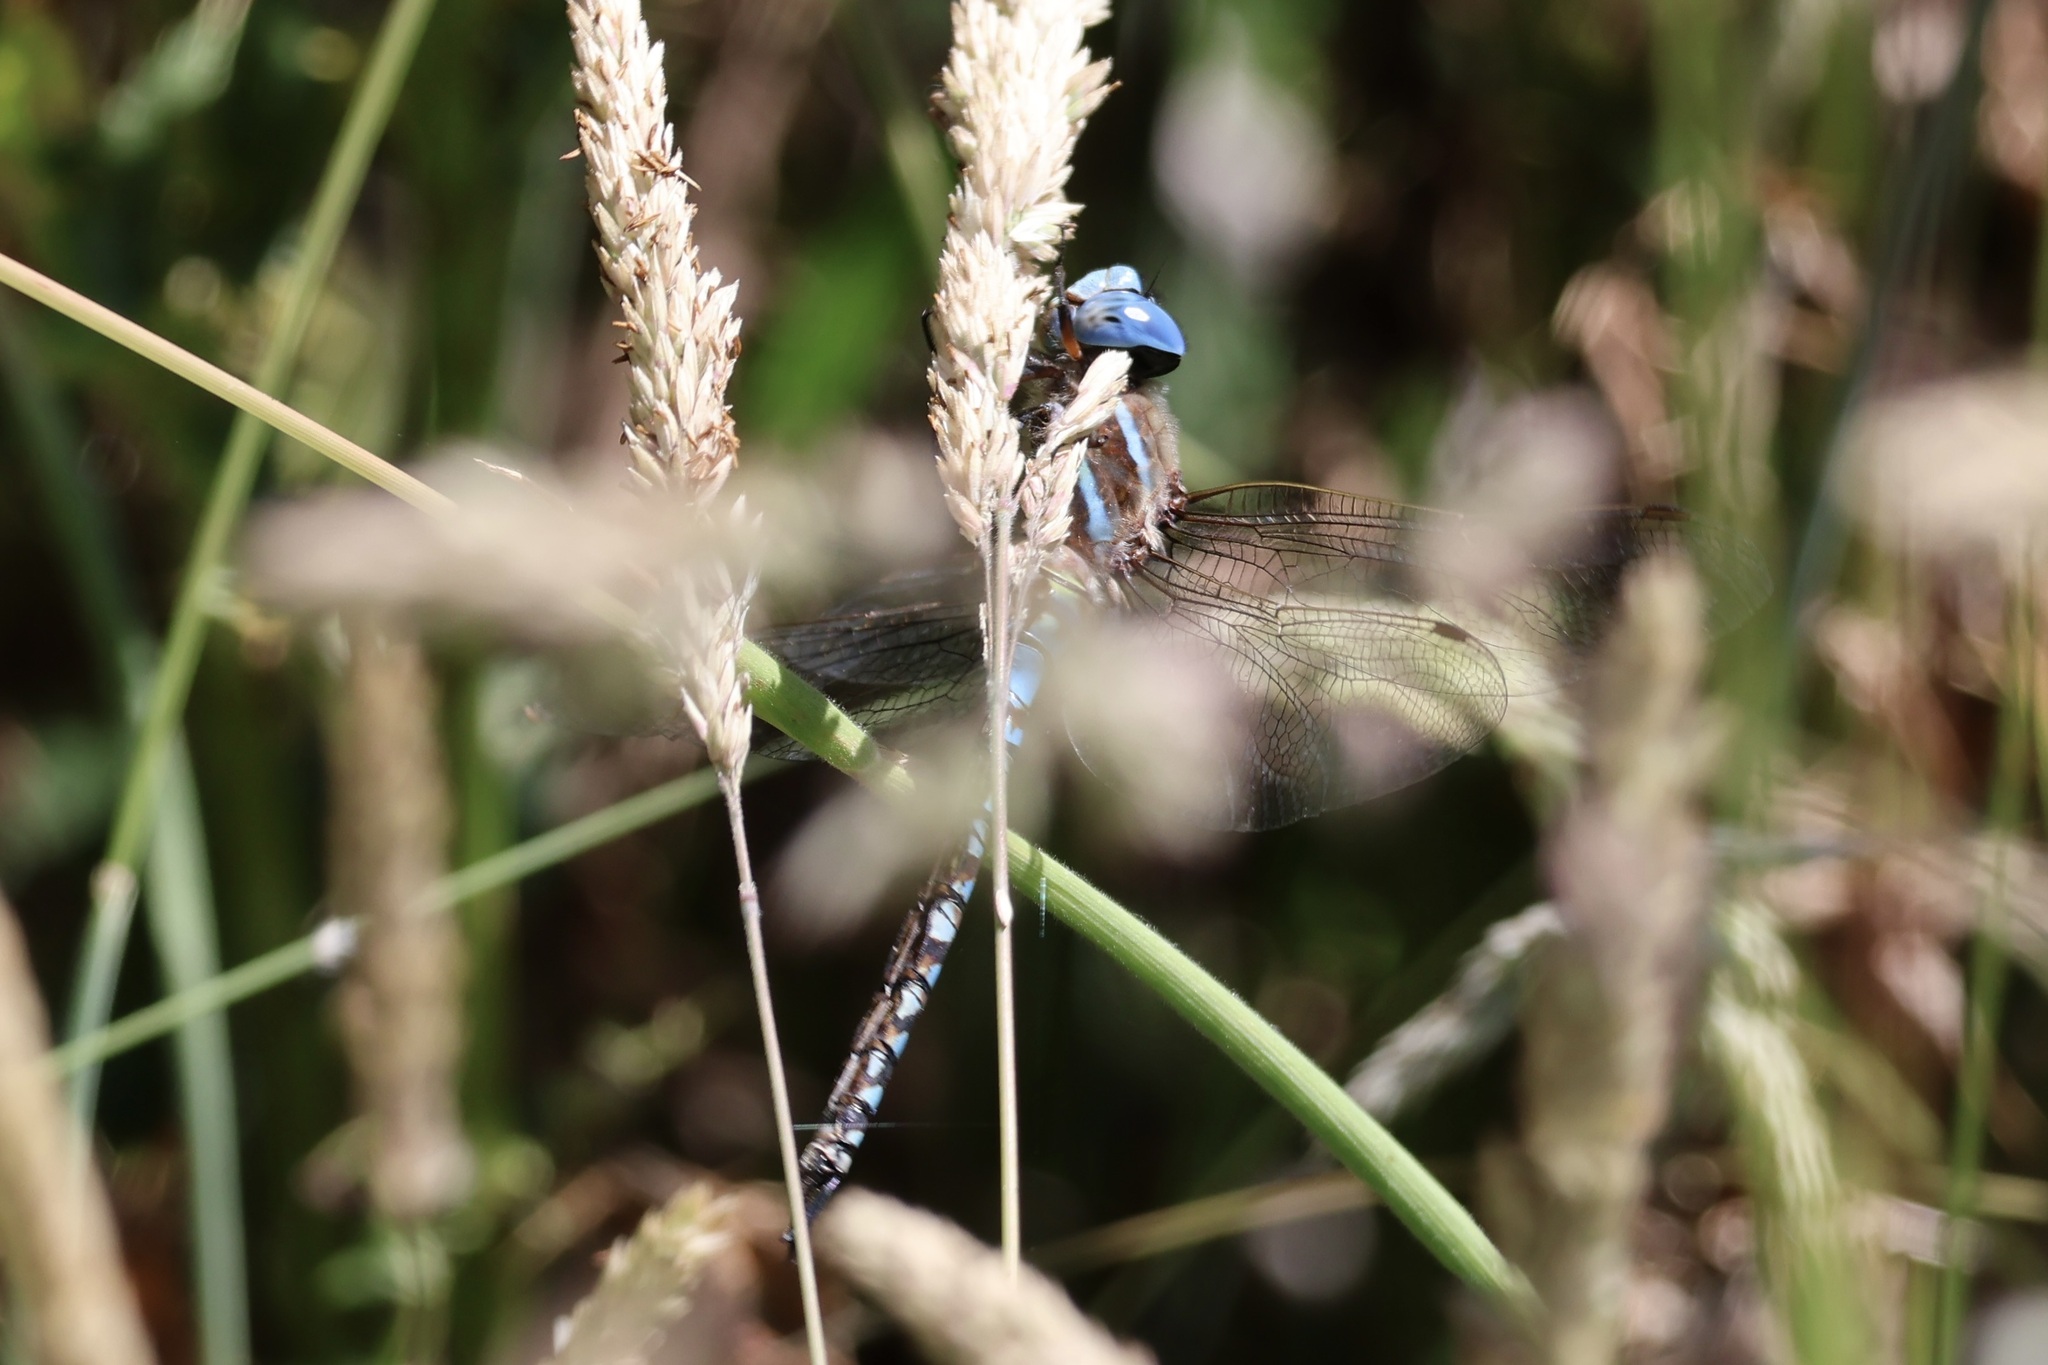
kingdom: Animalia
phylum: Arthropoda
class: Insecta
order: Odonata
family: Aeshnidae
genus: Rhionaeschna
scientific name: Rhionaeschna multicolor
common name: Blue-eyed darner
